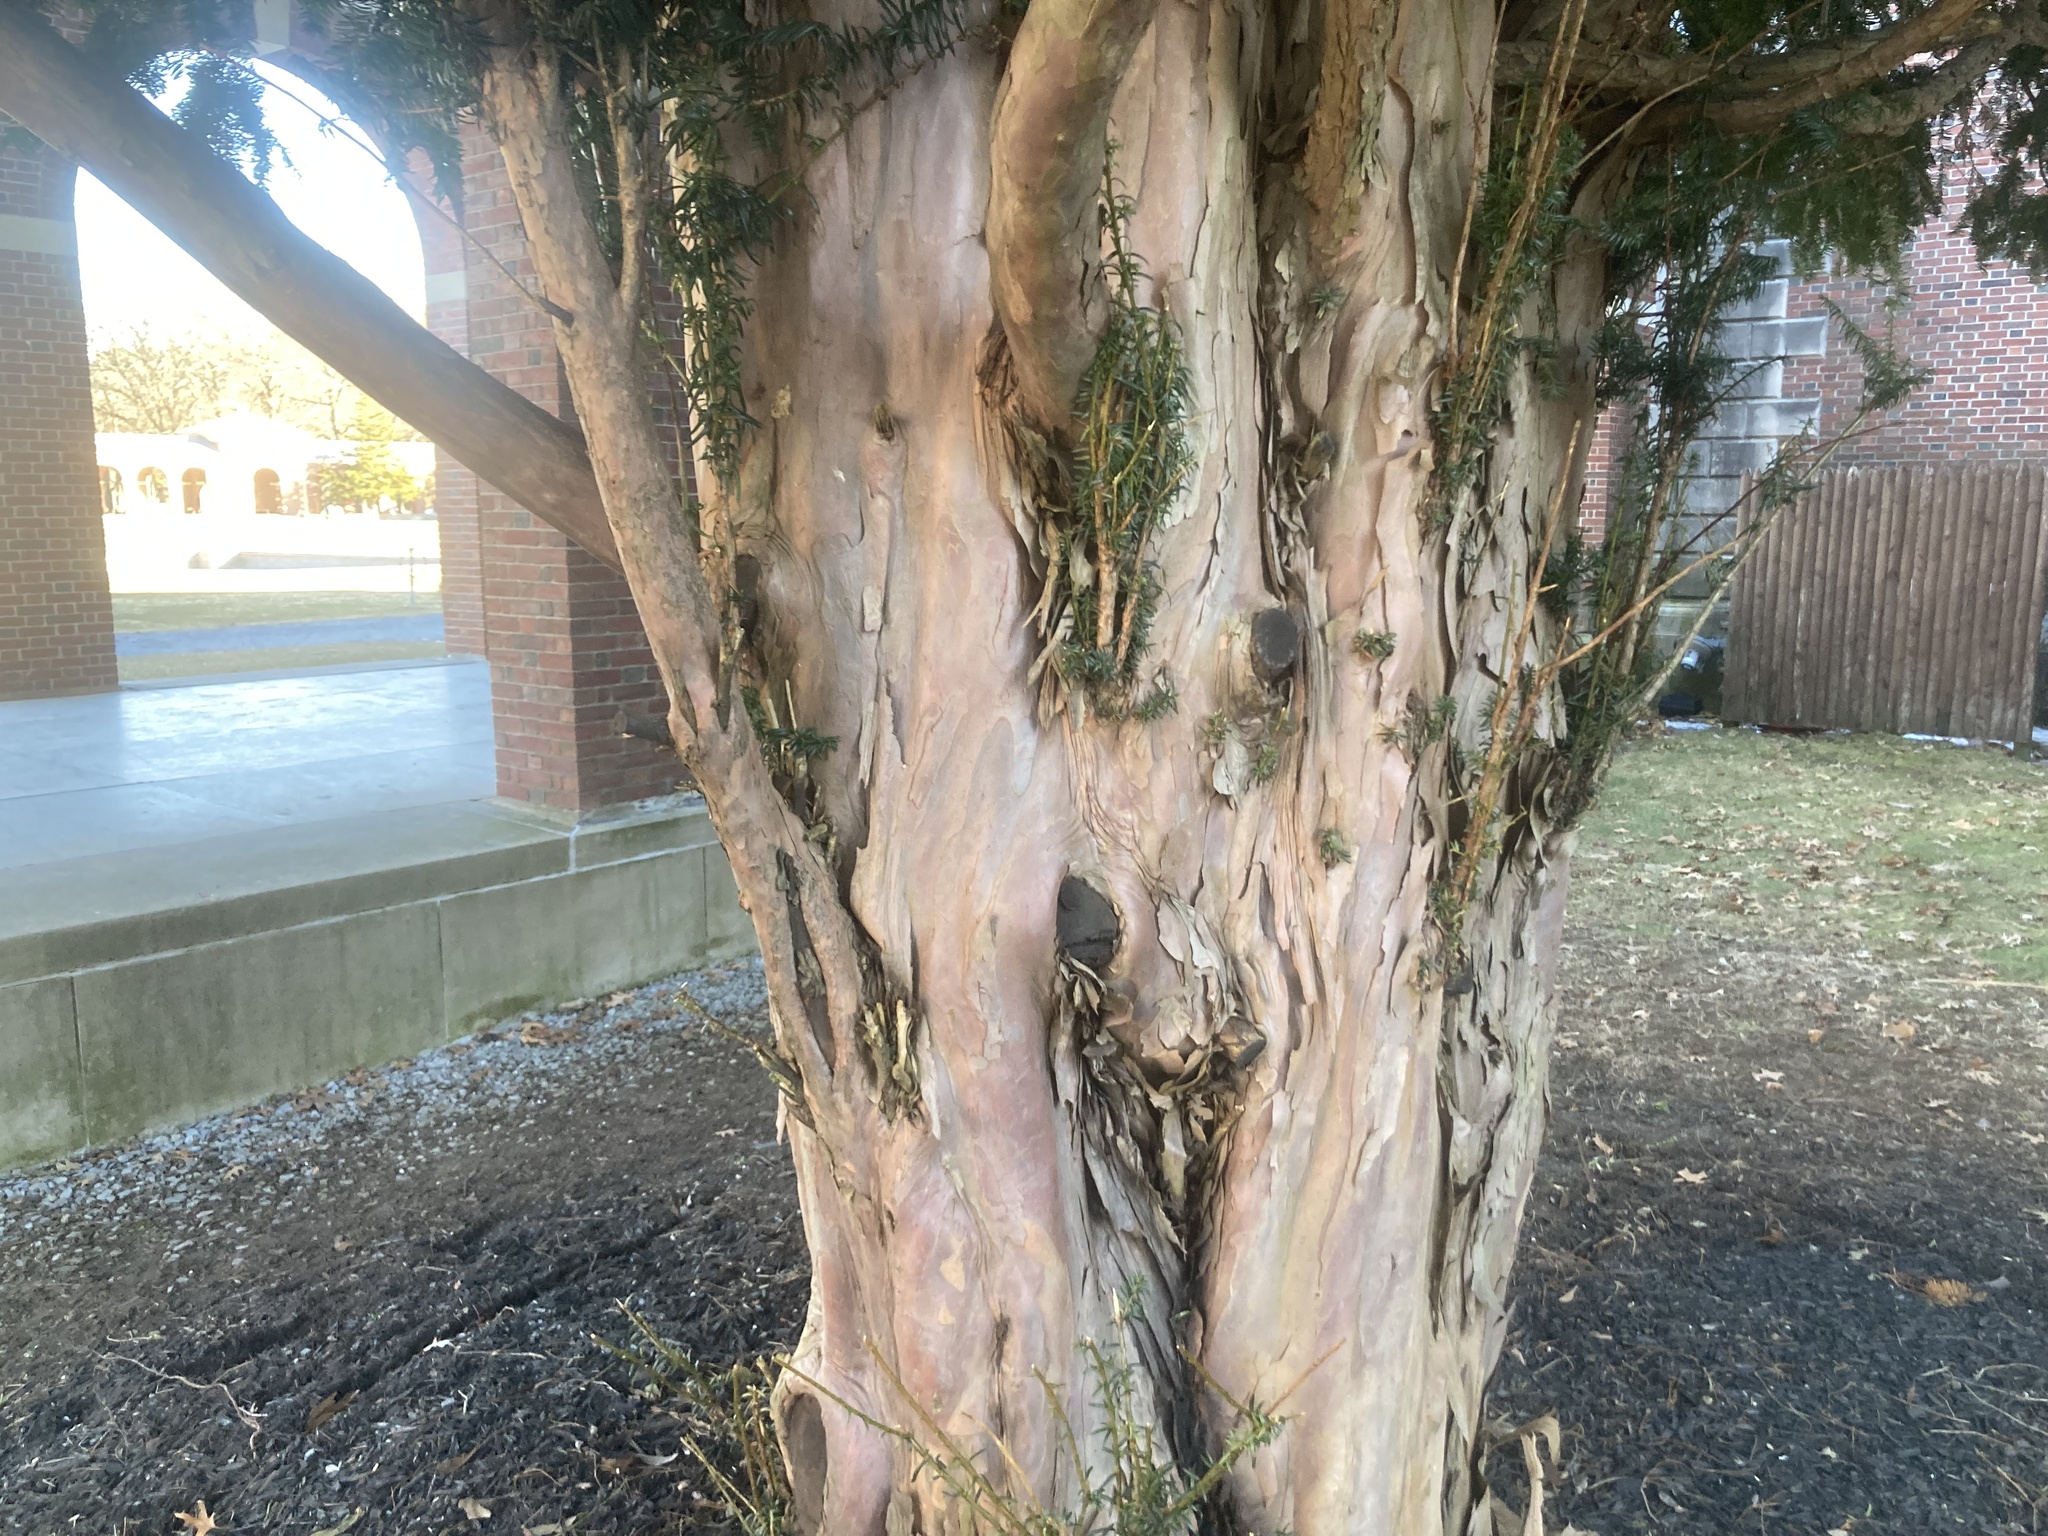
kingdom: Plantae
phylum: Tracheophyta
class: Pinopsida
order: Pinales
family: Taxaceae
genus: Taxus
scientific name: Taxus baccata
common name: Yew
